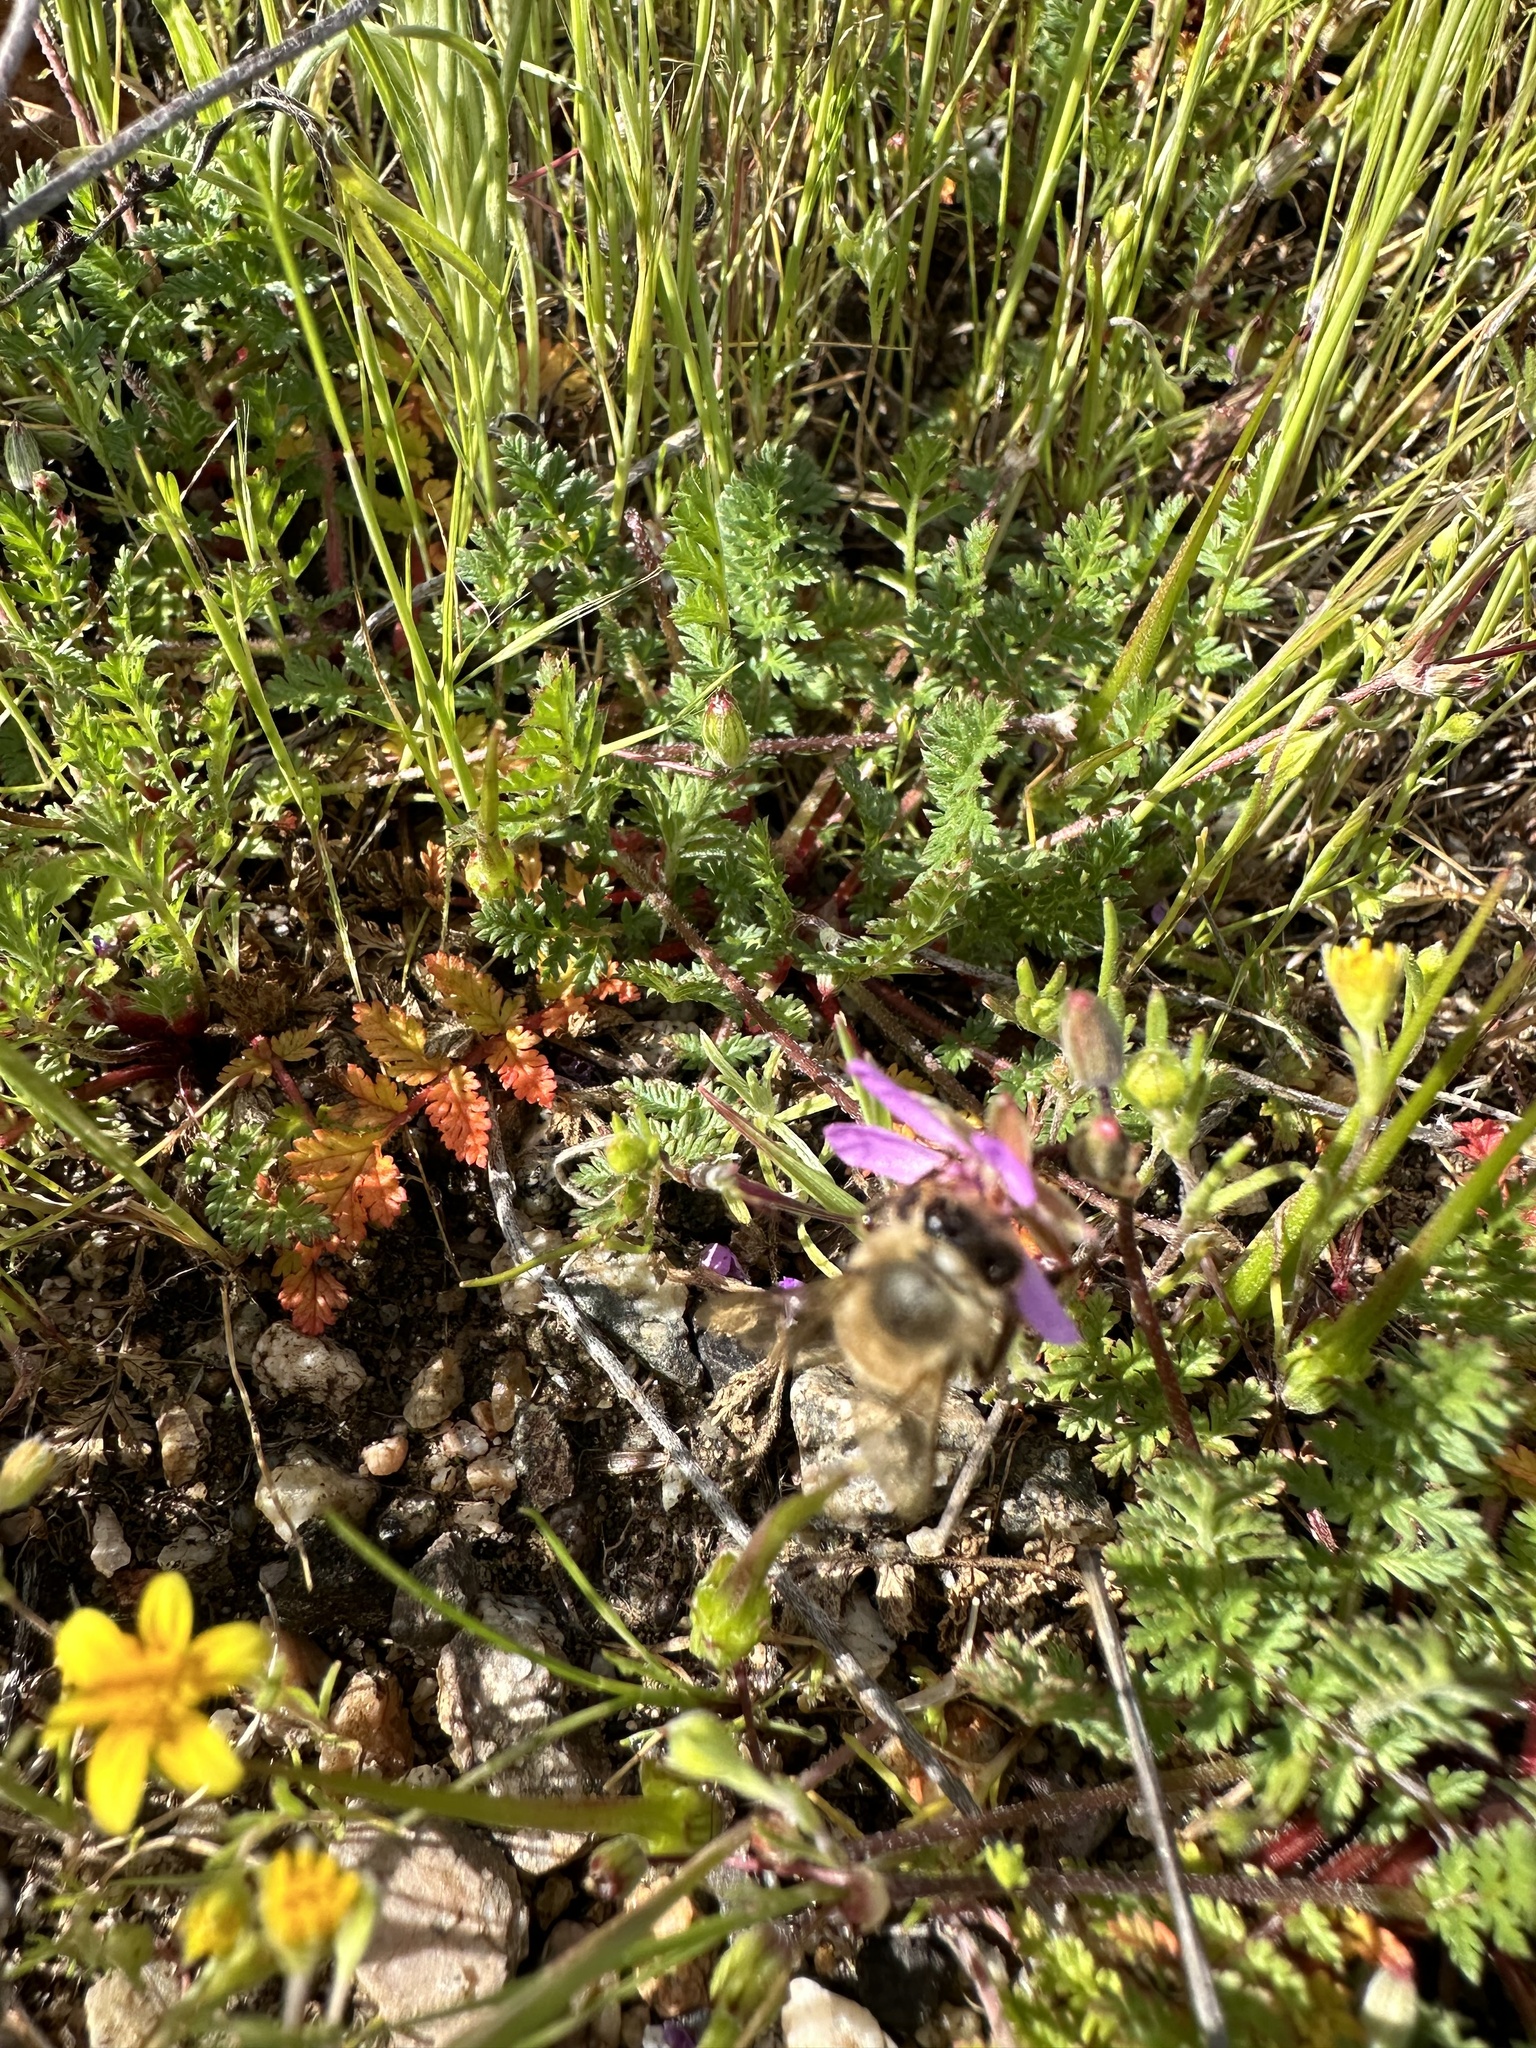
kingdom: Plantae
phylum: Tracheophyta
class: Magnoliopsida
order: Geraniales
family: Geraniaceae
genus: Erodium
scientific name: Erodium cicutarium
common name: Common stork's-bill
